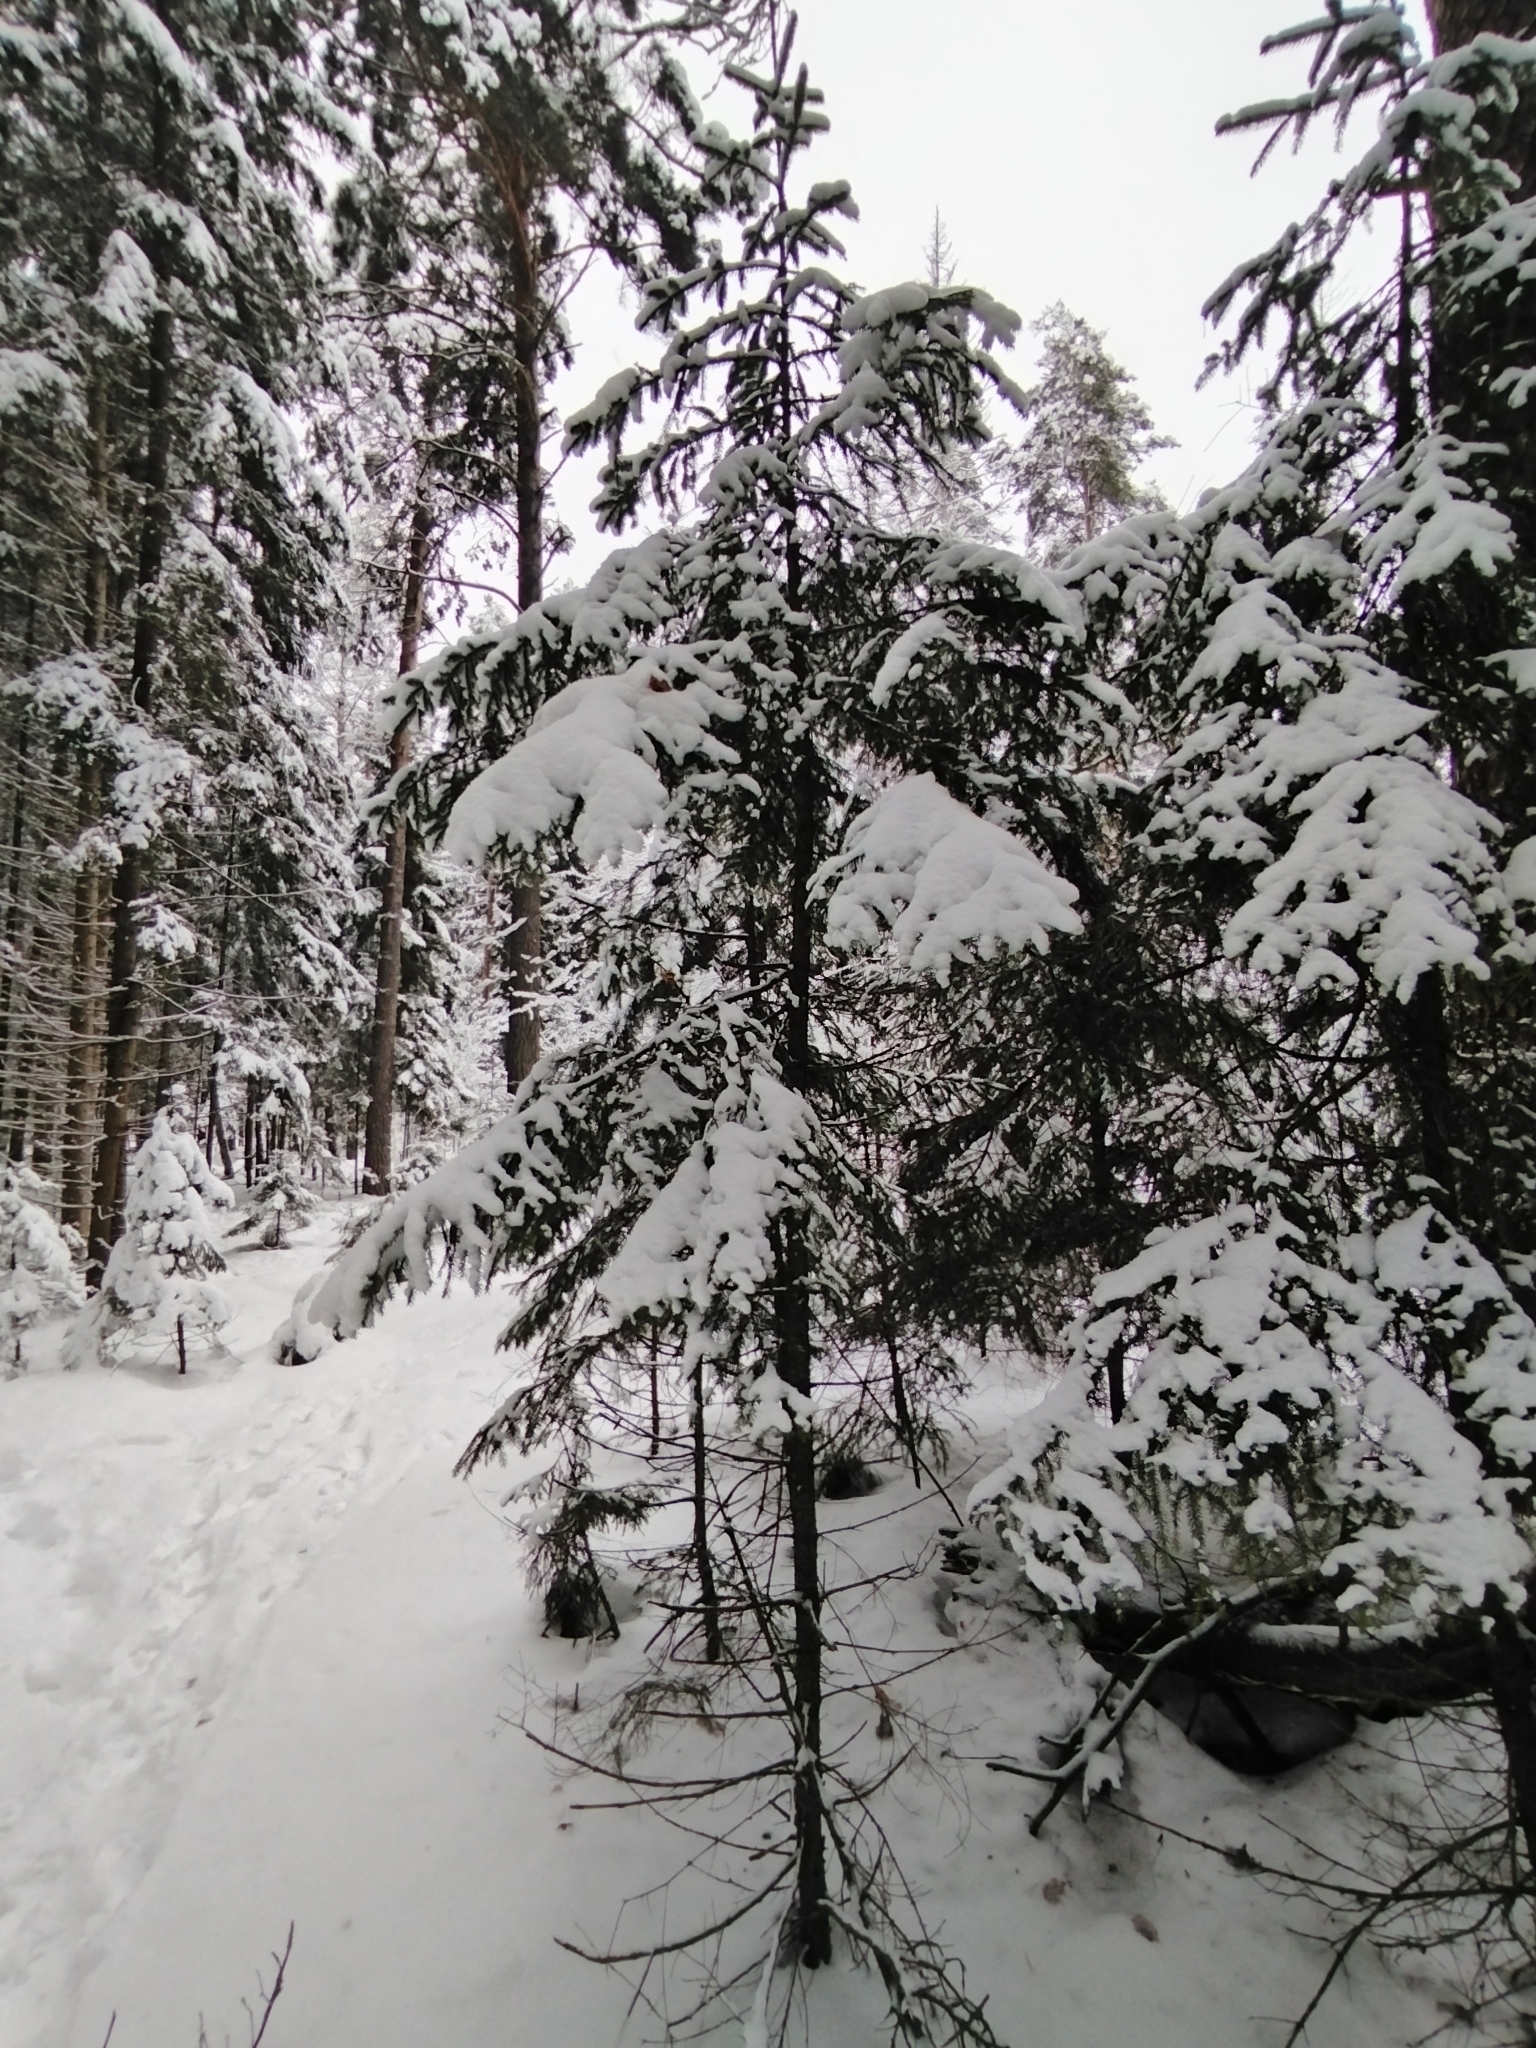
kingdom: Plantae
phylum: Tracheophyta
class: Pinopsida
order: Pinales
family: Pinaceae
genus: Picea
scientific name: Picea abies
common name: Norway spruce
